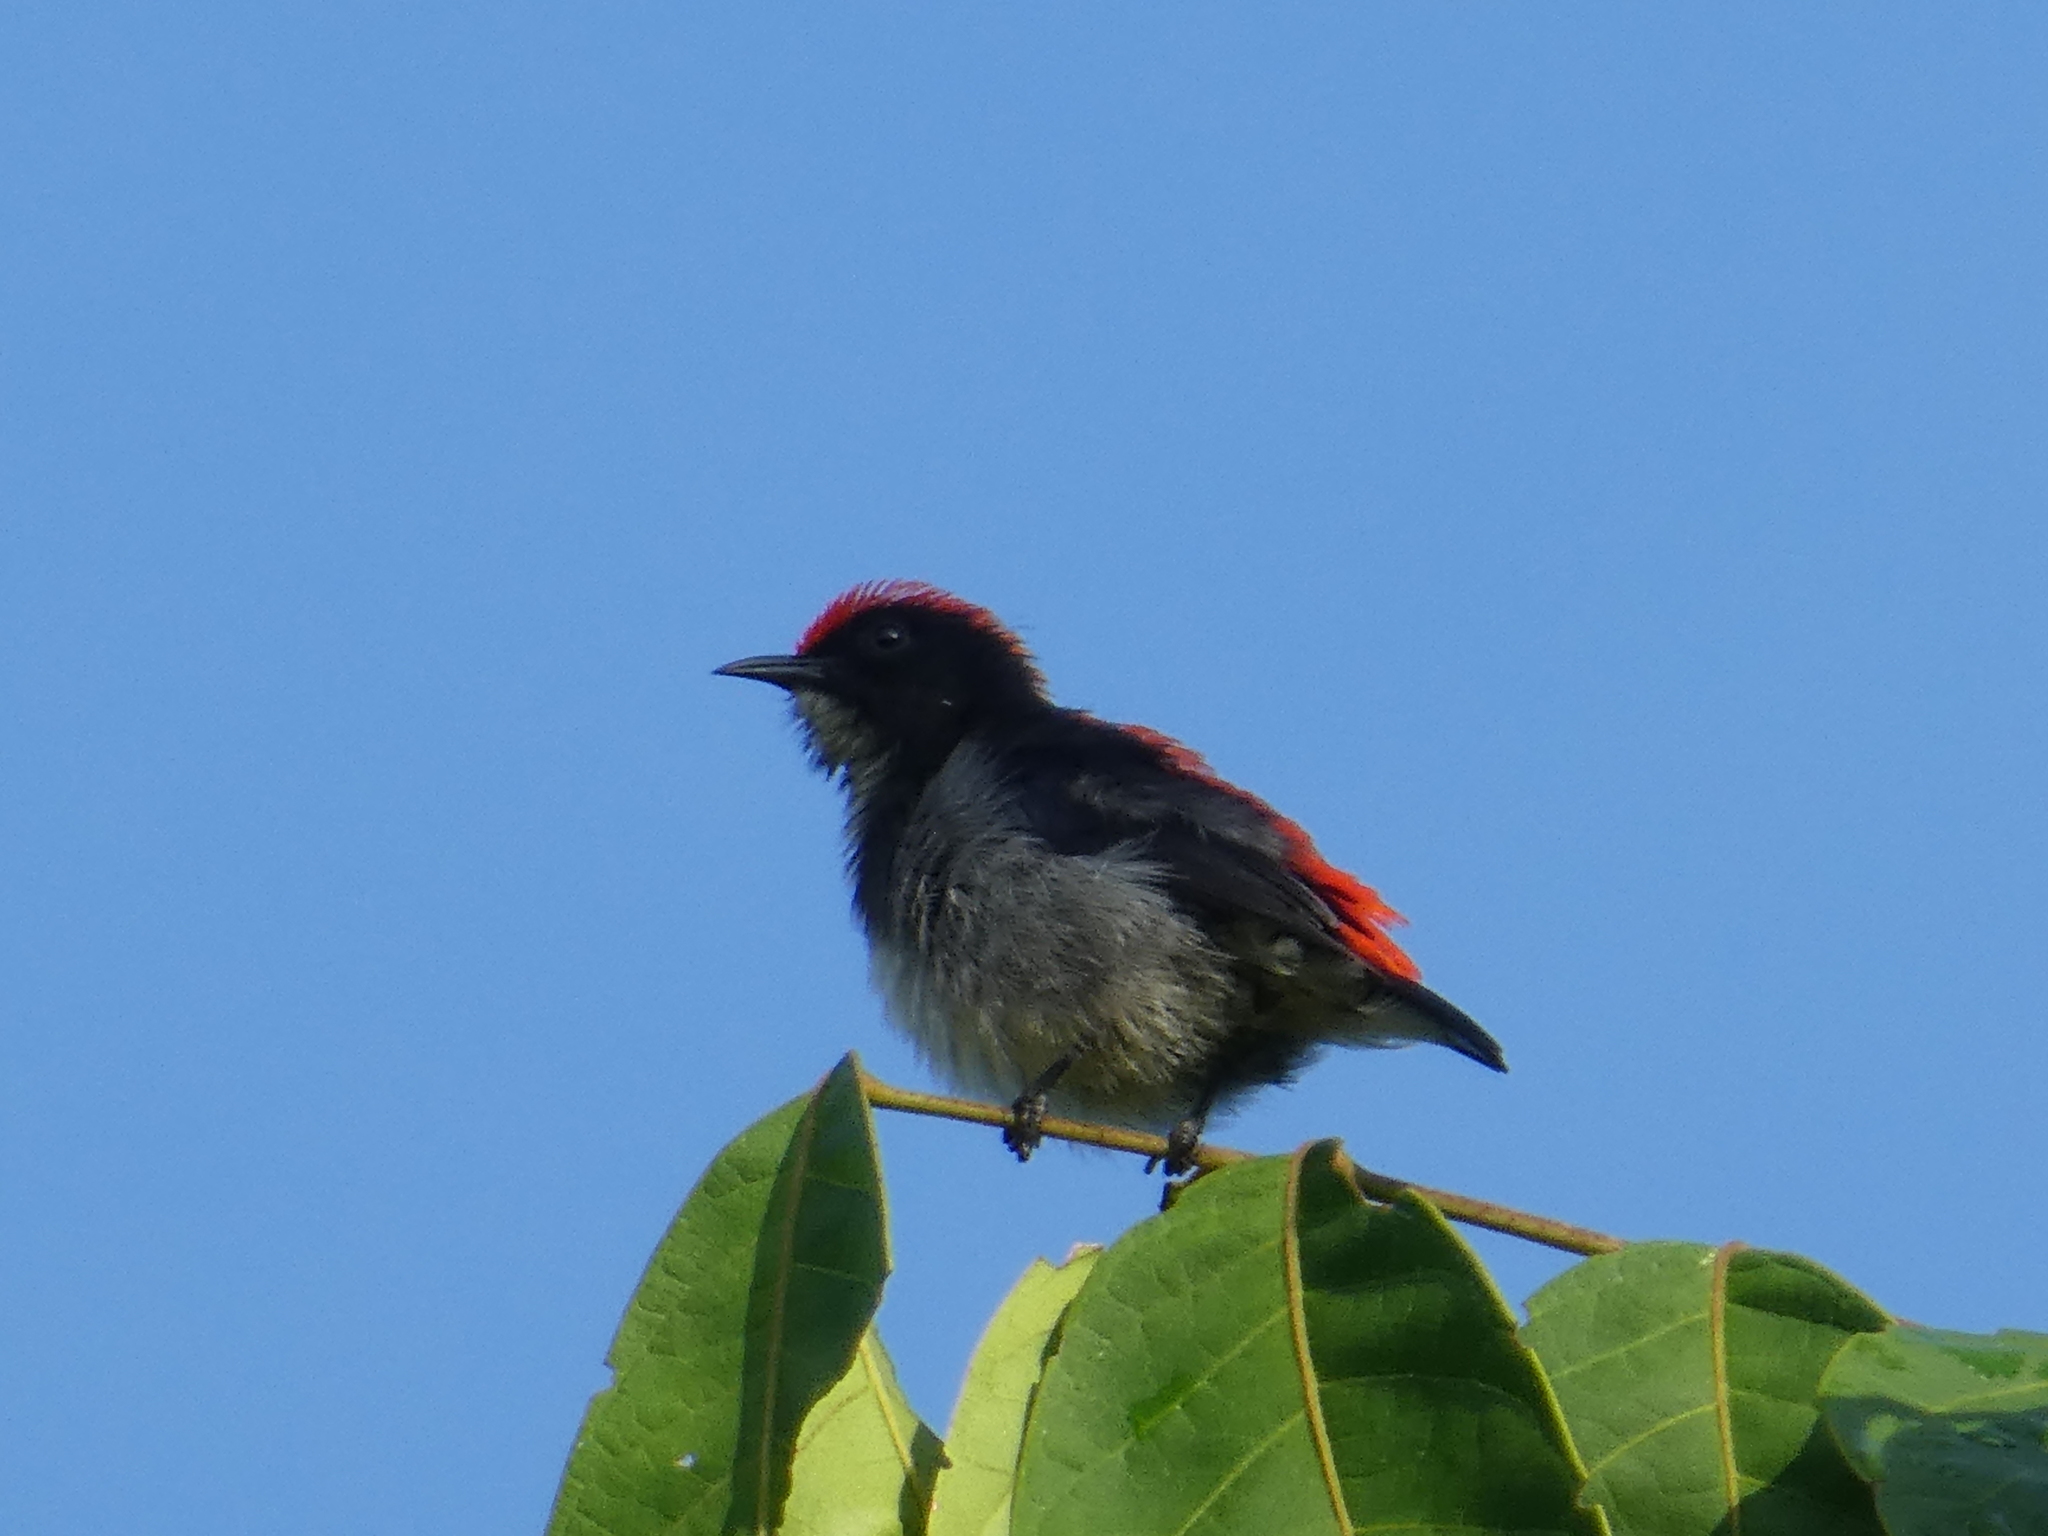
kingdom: Animalia
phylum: Chordata
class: Aves
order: Passeriformes
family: Dicaeidae
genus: Dicaeum
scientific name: Dicaeum cruentatum
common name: Scarlet-backed flowerpecker
